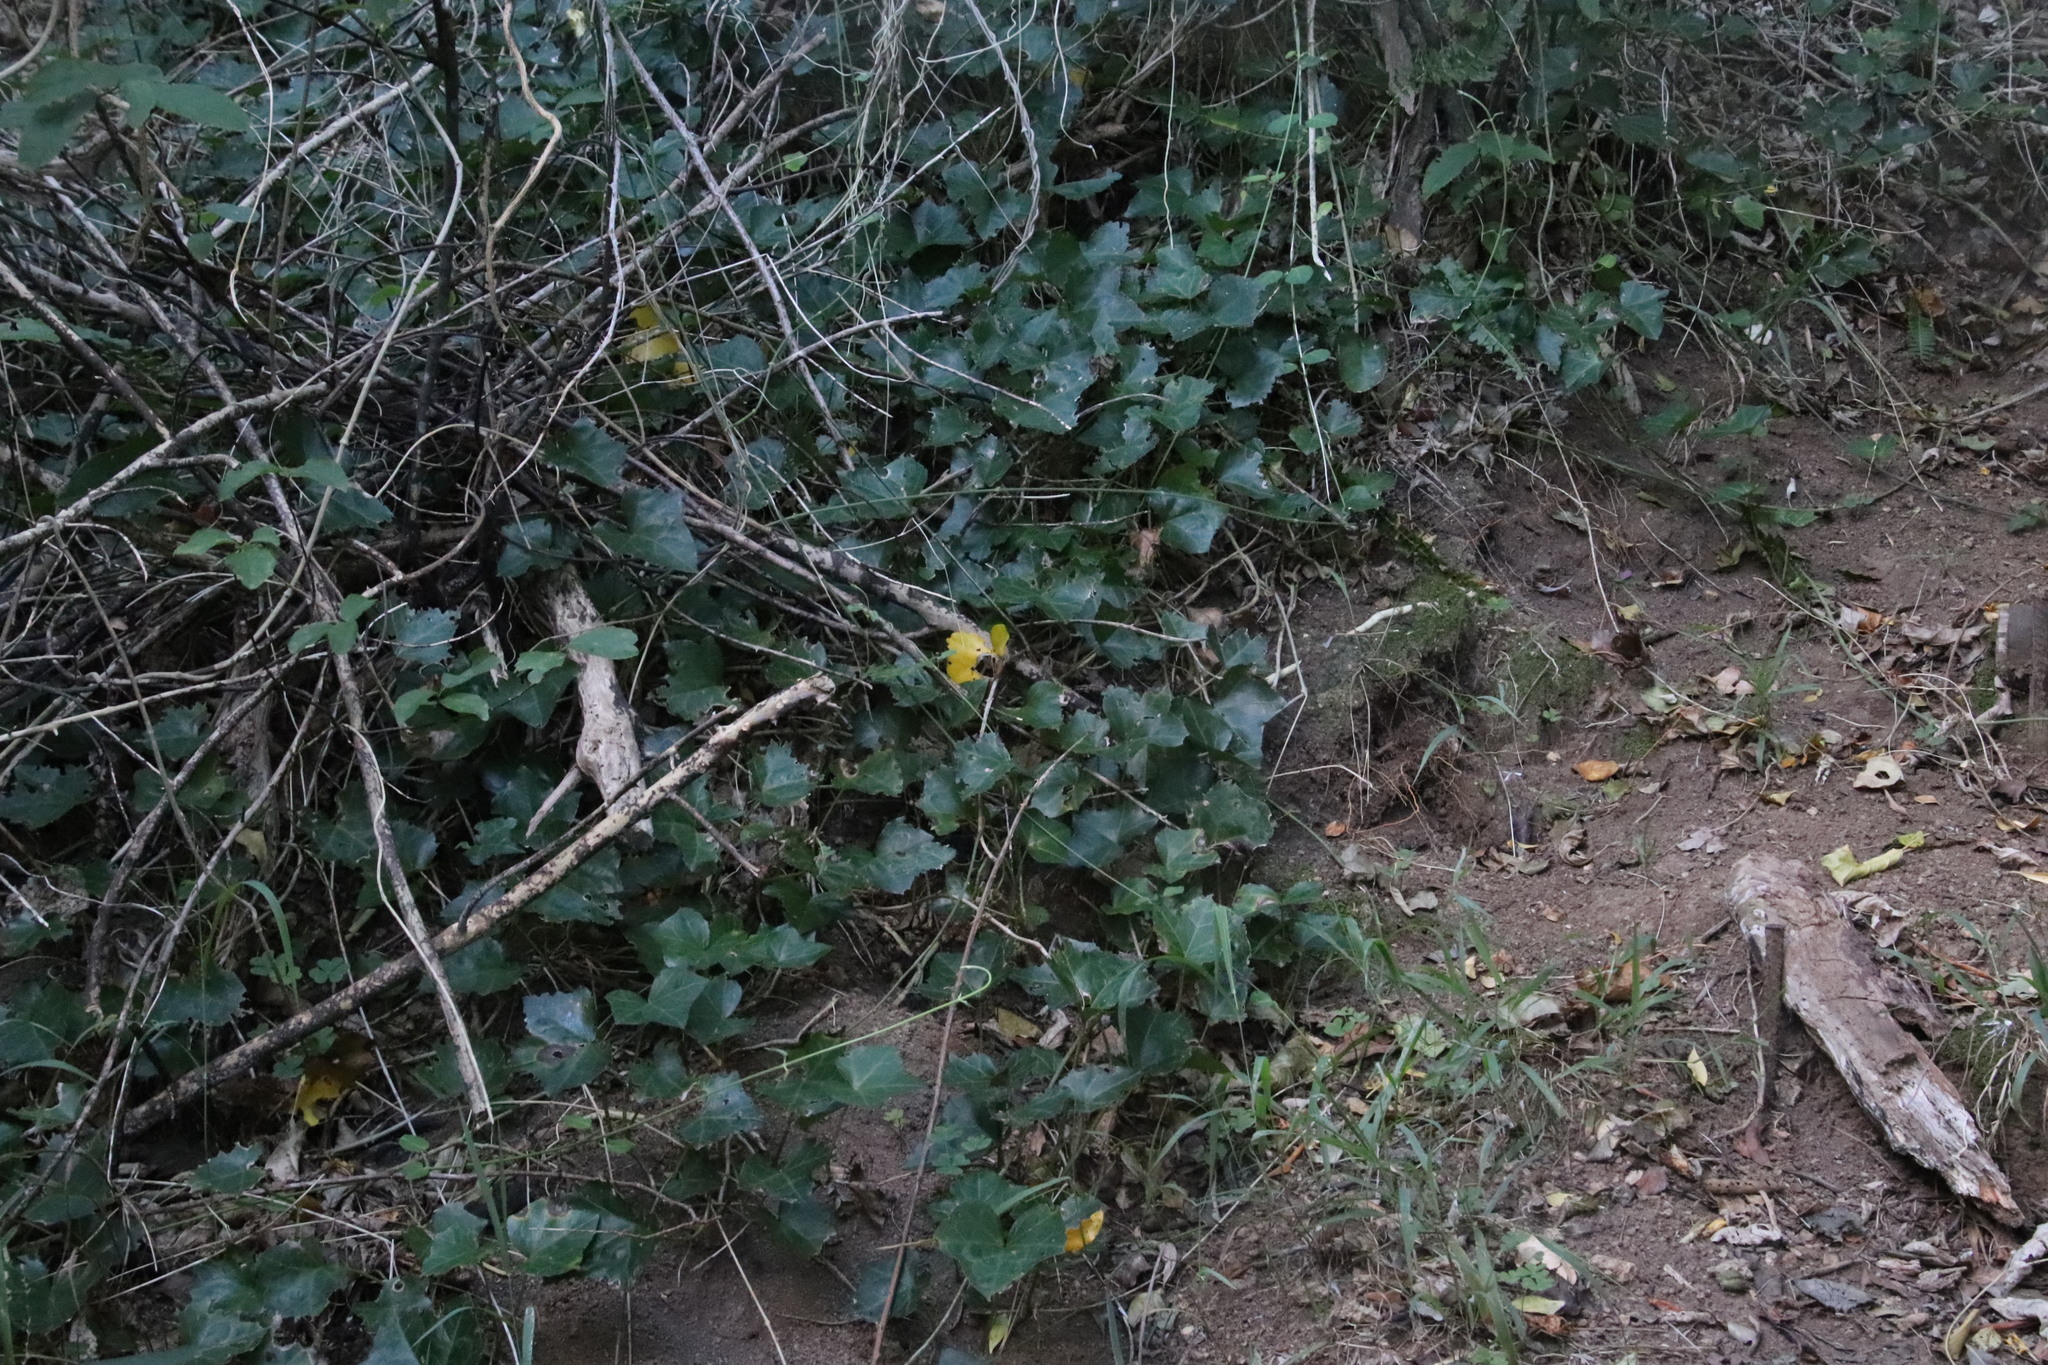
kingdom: Plantae
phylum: Tracheophyta
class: Magnoliopsida
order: Apiales
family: Araliaceae
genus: Hedera
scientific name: Hedera canariensis
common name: Madeira ivy
